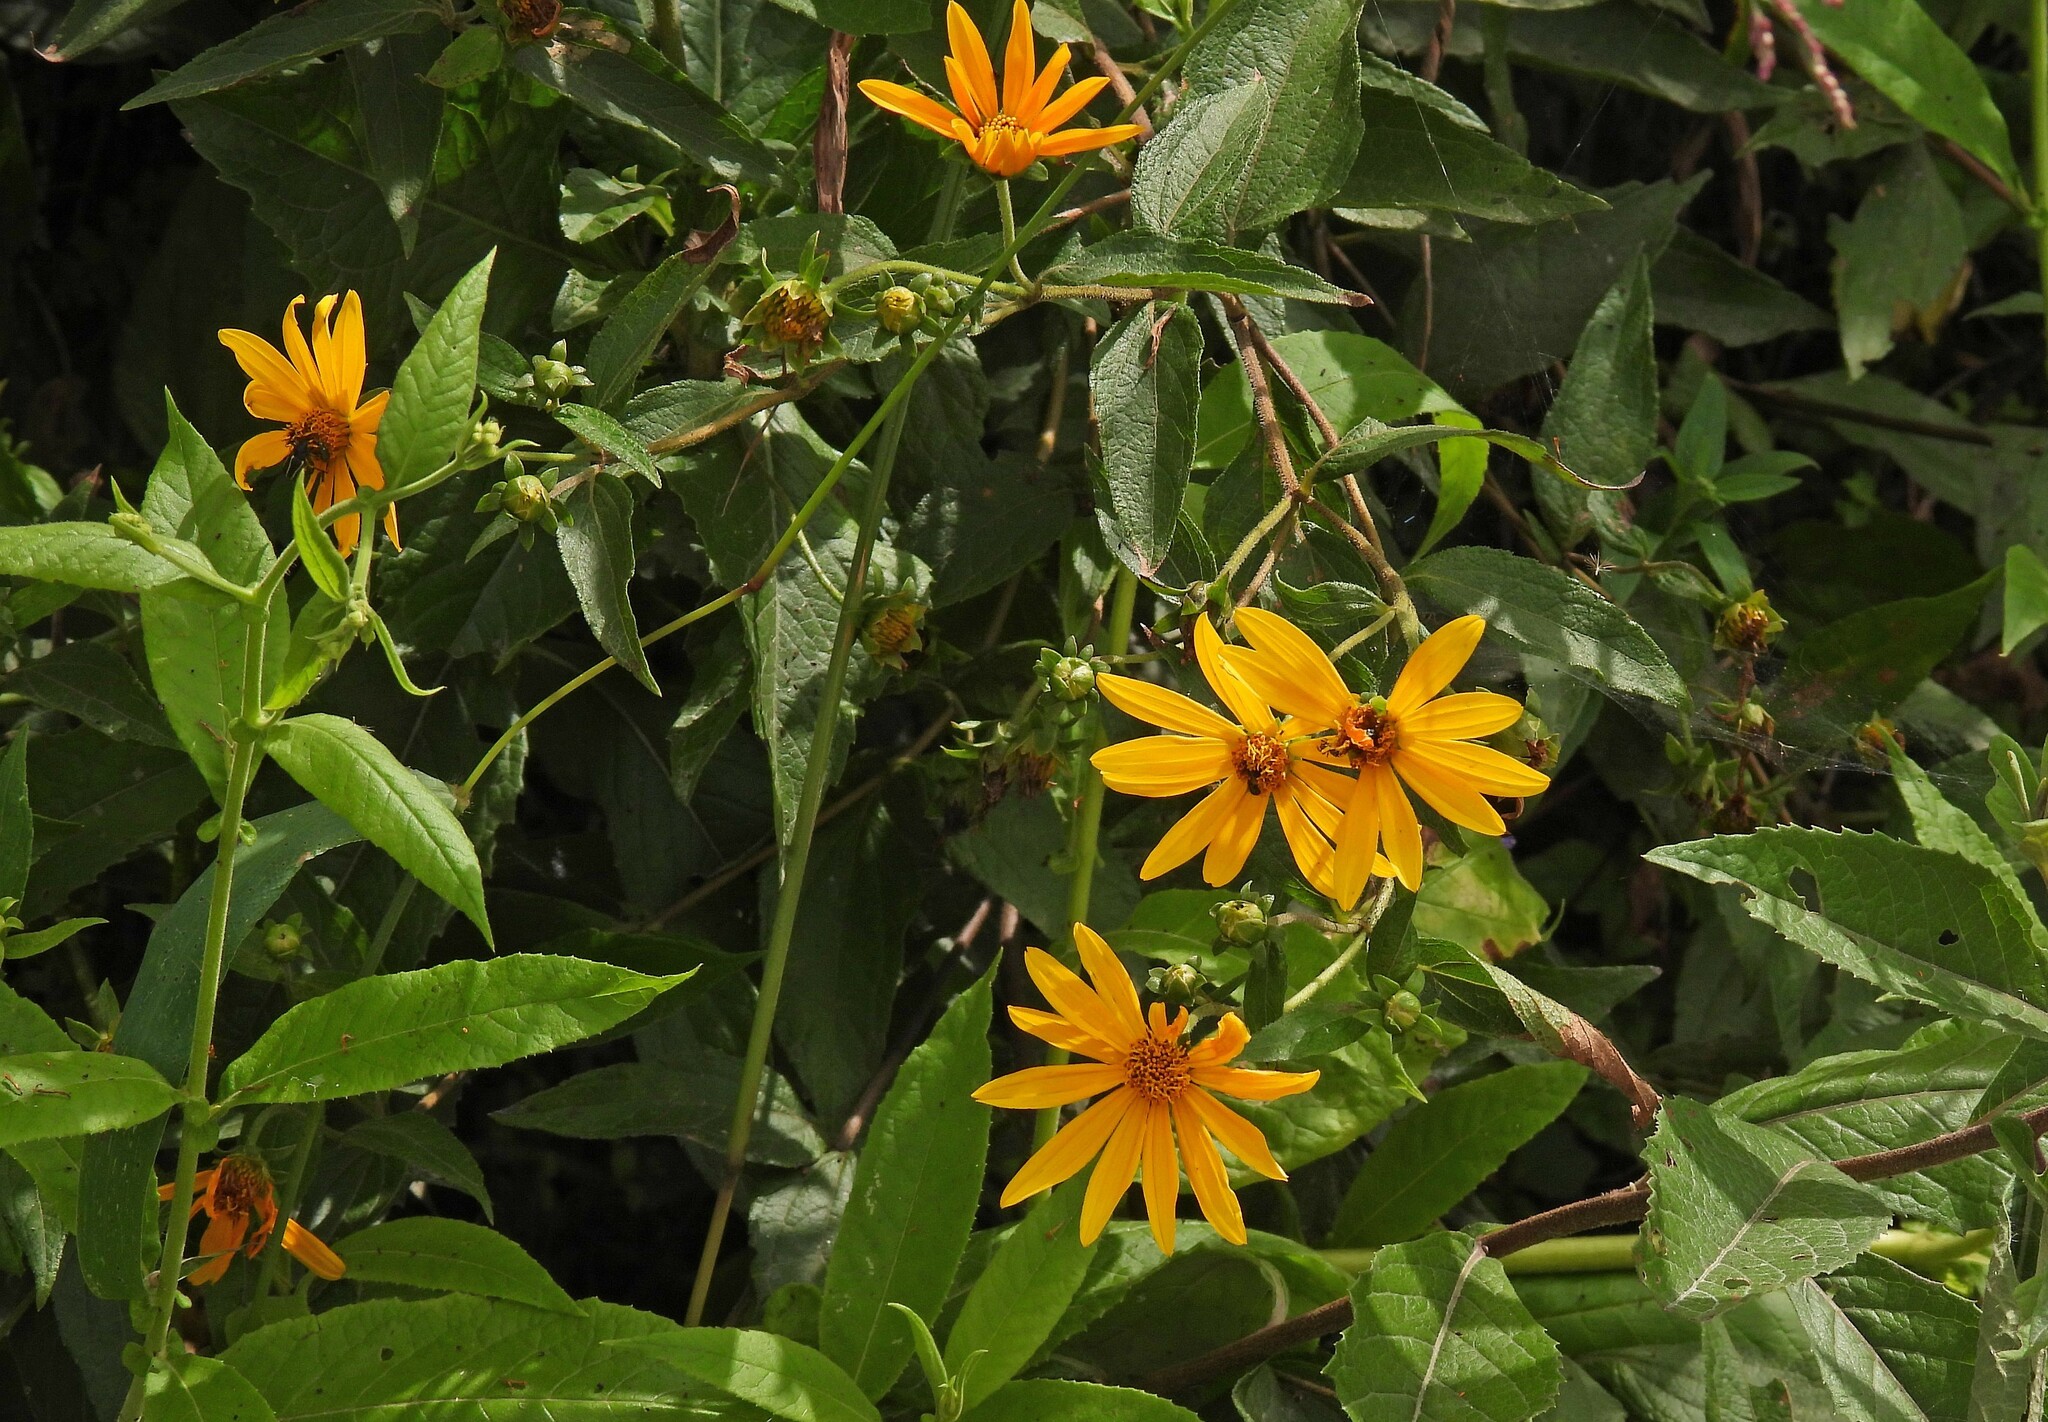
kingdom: Plantae
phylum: Tracheophyta
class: Magnoliopsida
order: Asterales
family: Asteraceae
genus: Wedelia
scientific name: Wedelia aurantiaca
